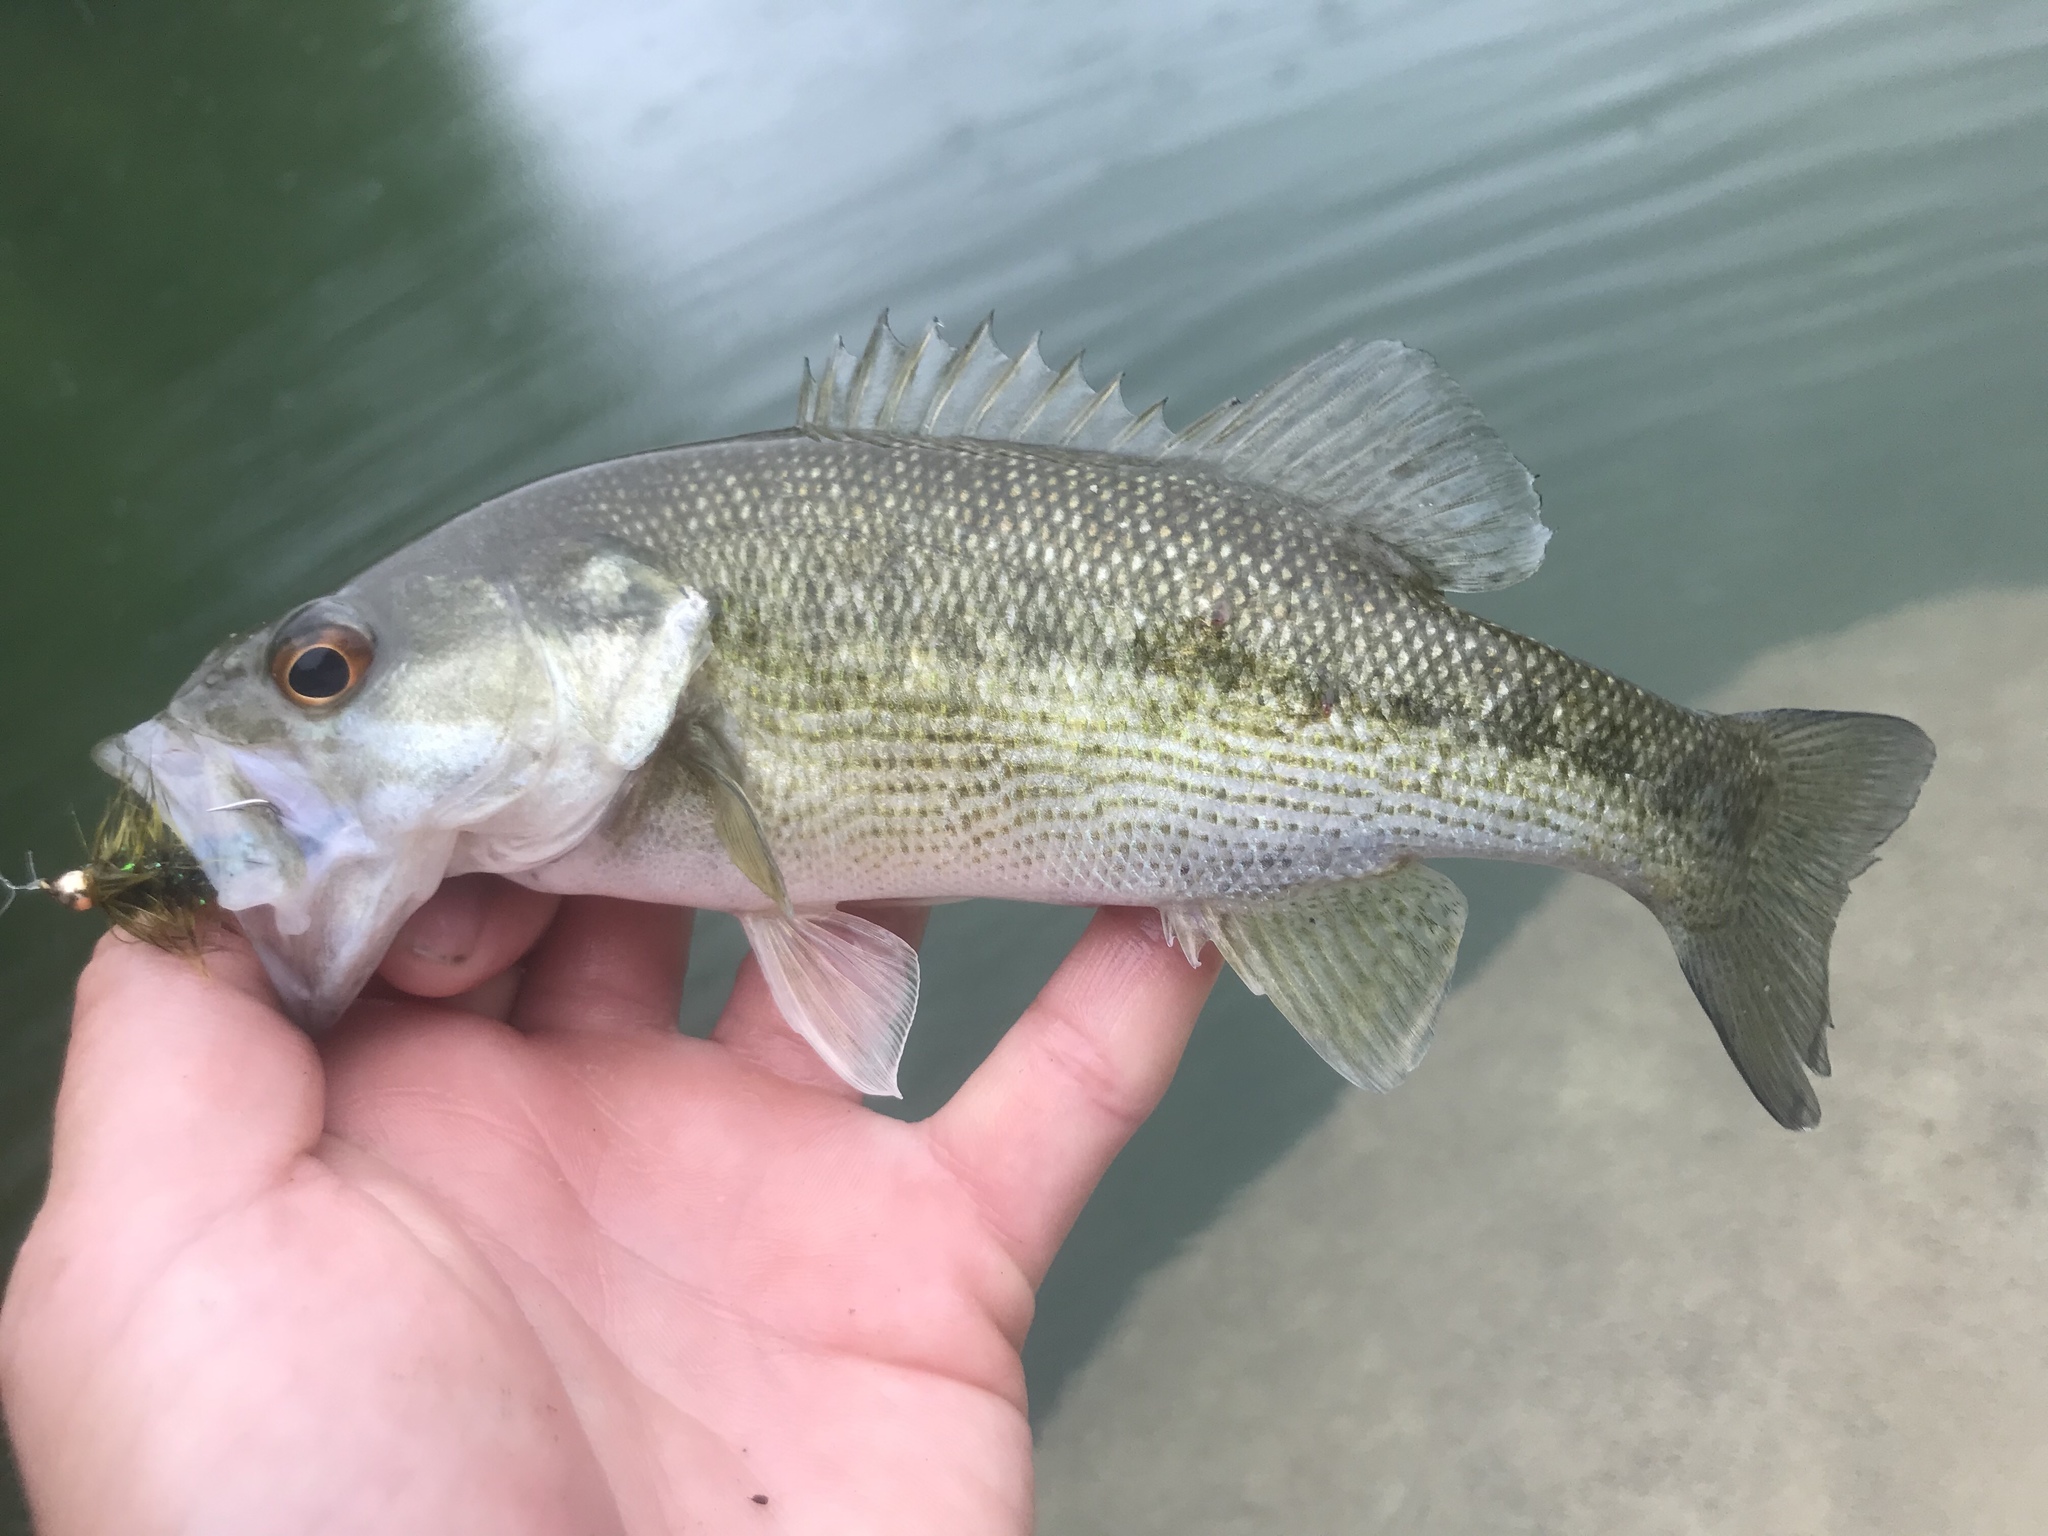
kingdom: Animalia
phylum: Chordata
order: Perciformes
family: Centrarchidae
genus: Micropterus
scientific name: Micropterus treculii
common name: Guadalupe bass
